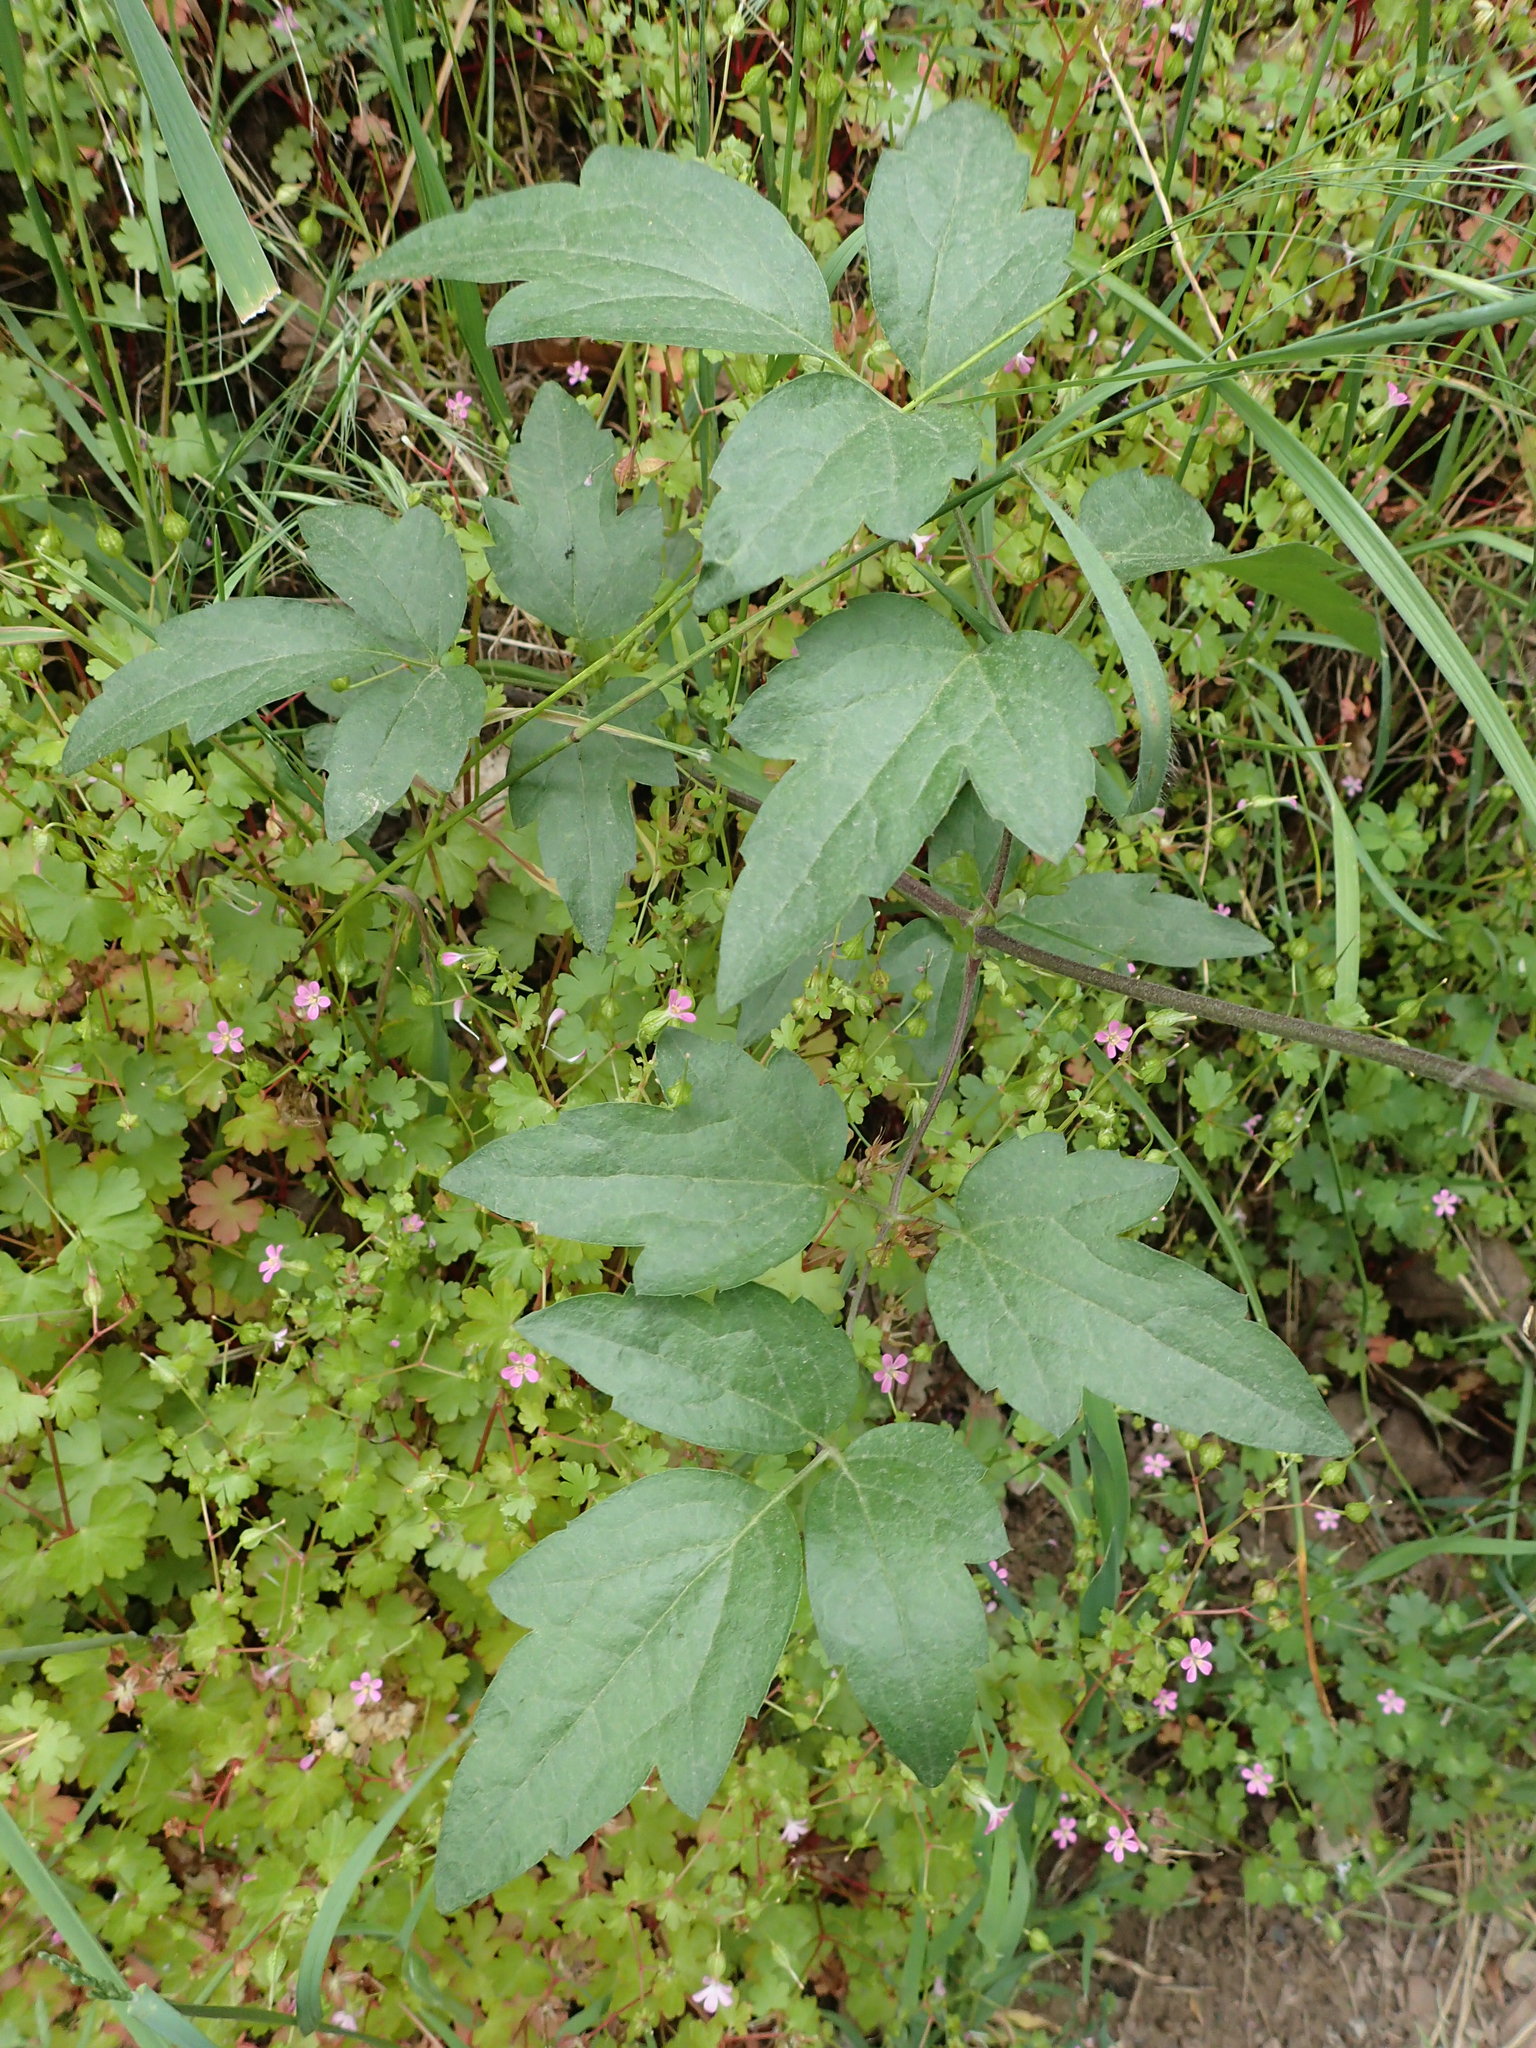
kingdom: Plantae
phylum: Tracheophyta
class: Magnoliopsida
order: Ranunculales
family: Ranunculaceae
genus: Clematis
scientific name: Clematis ligusticifolia
